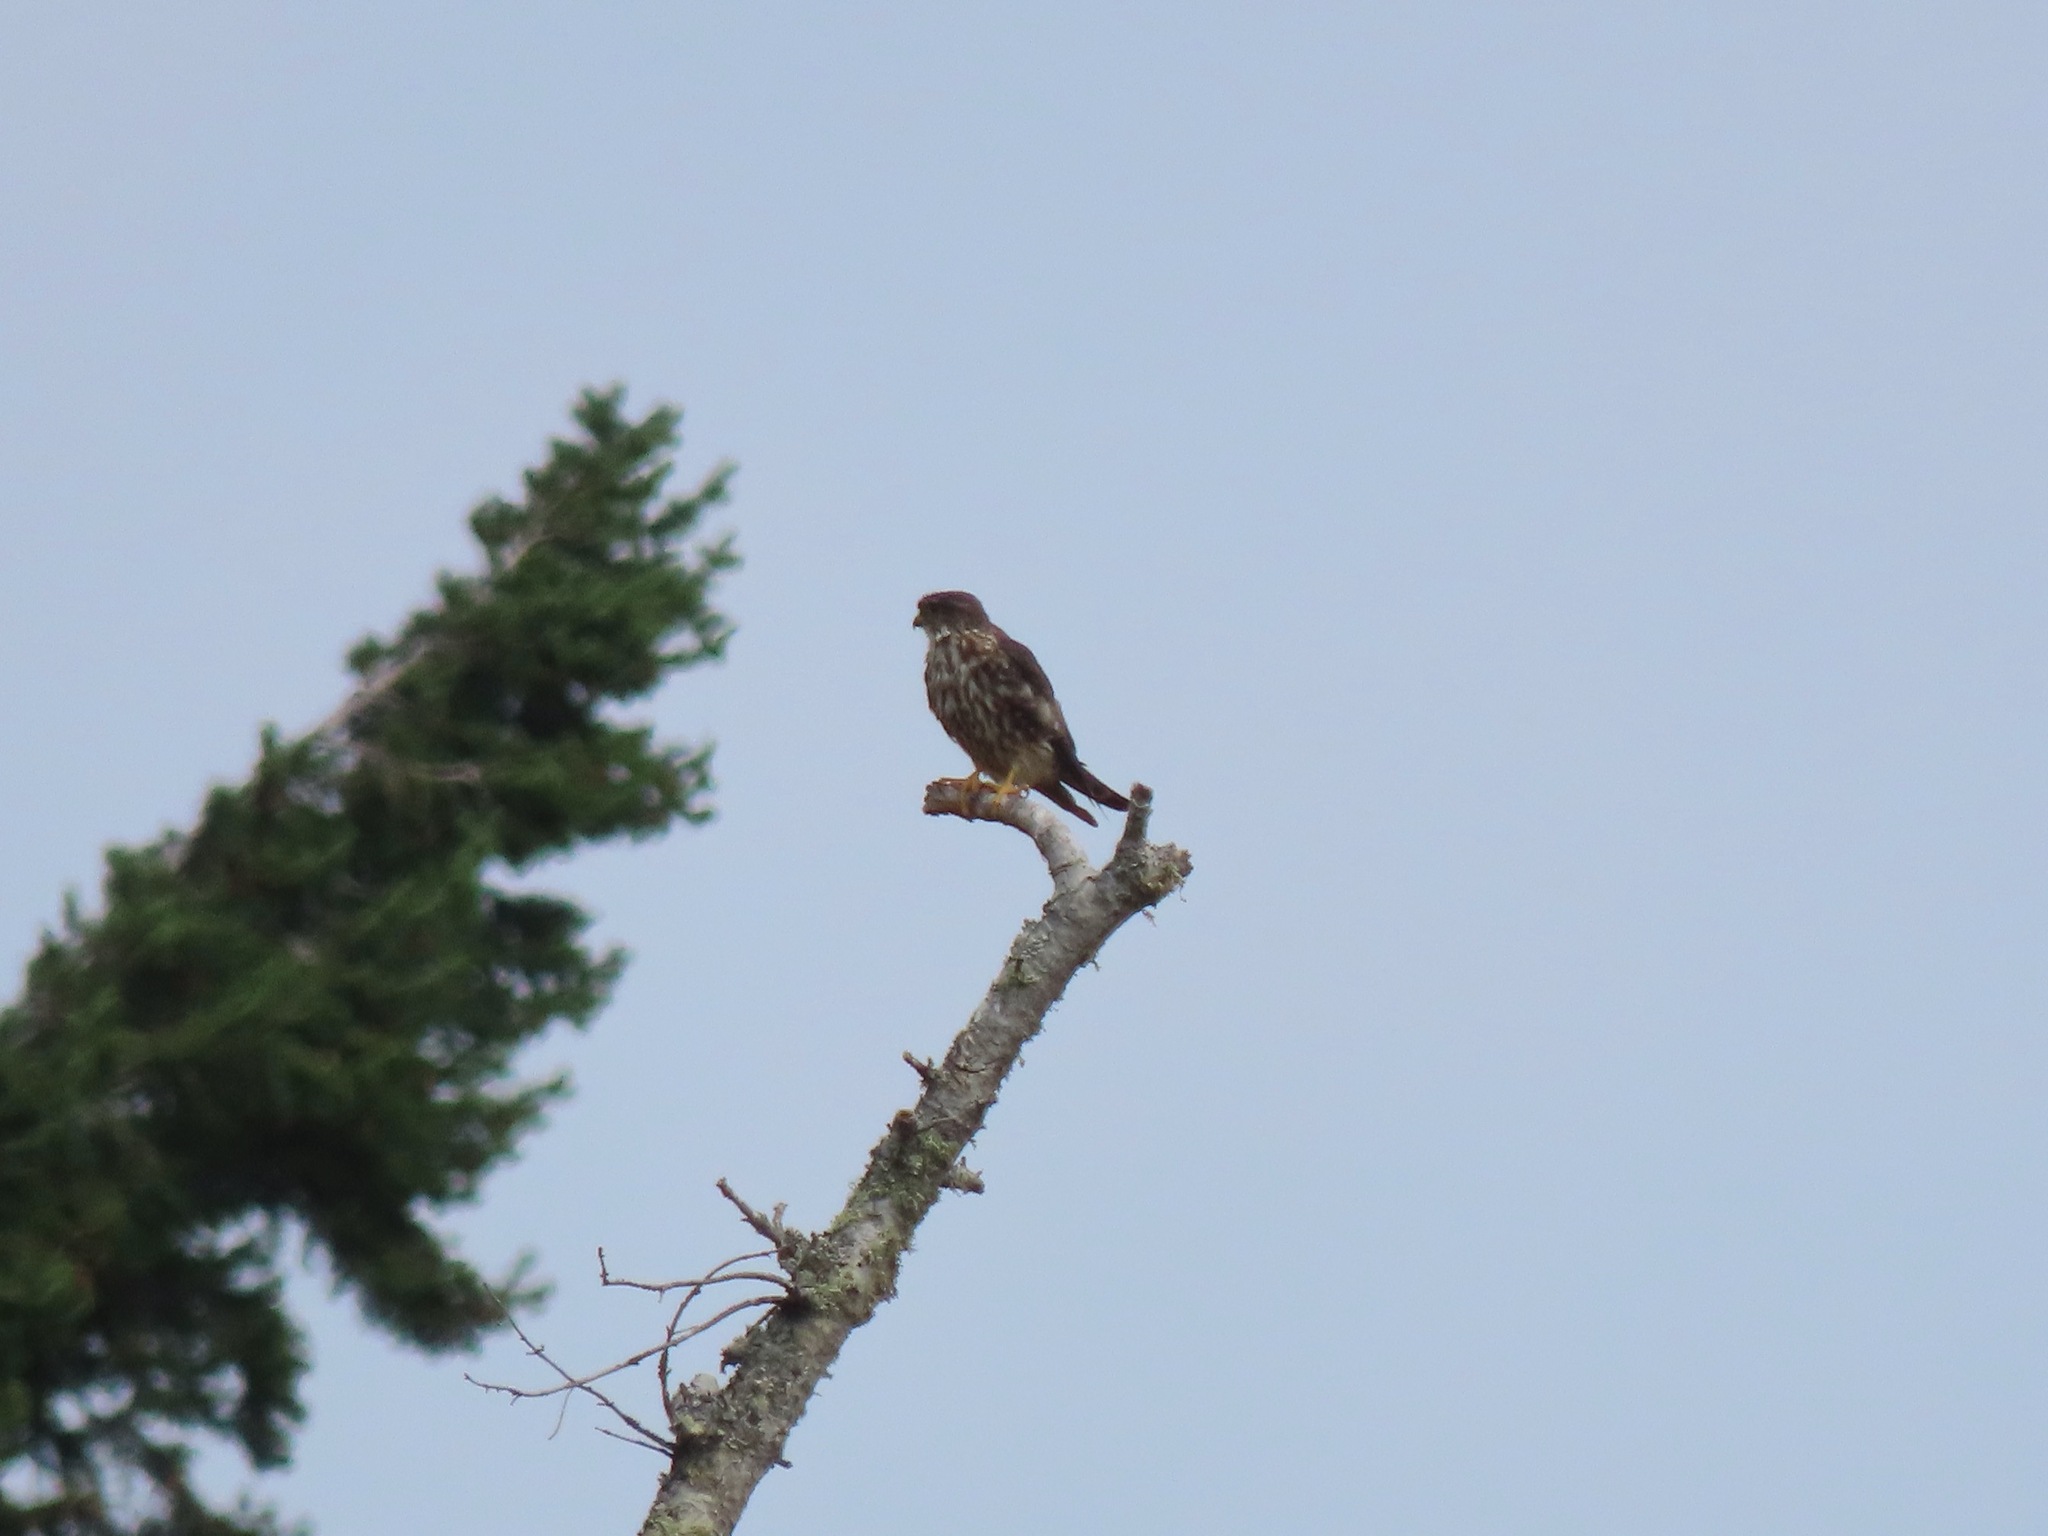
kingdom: Animalia
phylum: Chordata
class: Aves
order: Falconiformes
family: Falconidae
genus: Falco
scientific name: Falco columbarius
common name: Merlin
